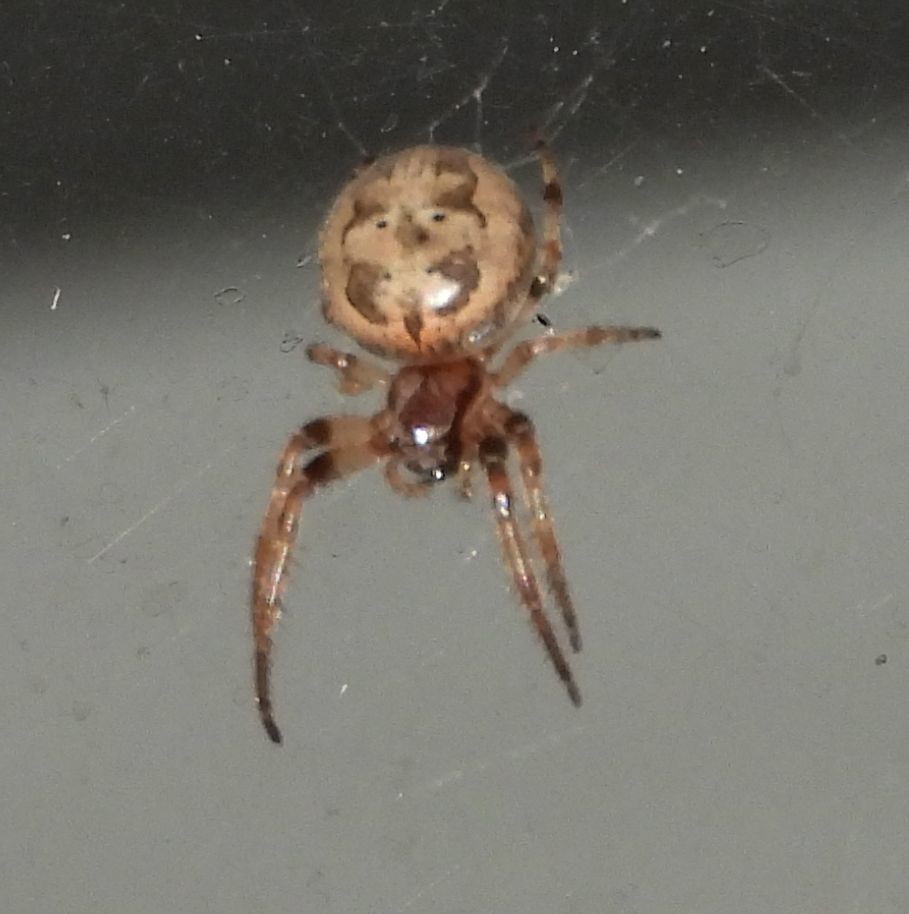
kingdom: Animalia
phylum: Arthropoda
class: Arachnida
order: Araneae
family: Araneidae
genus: Larinioides
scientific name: Larinioides cornutus
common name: Furrow orbweaver
